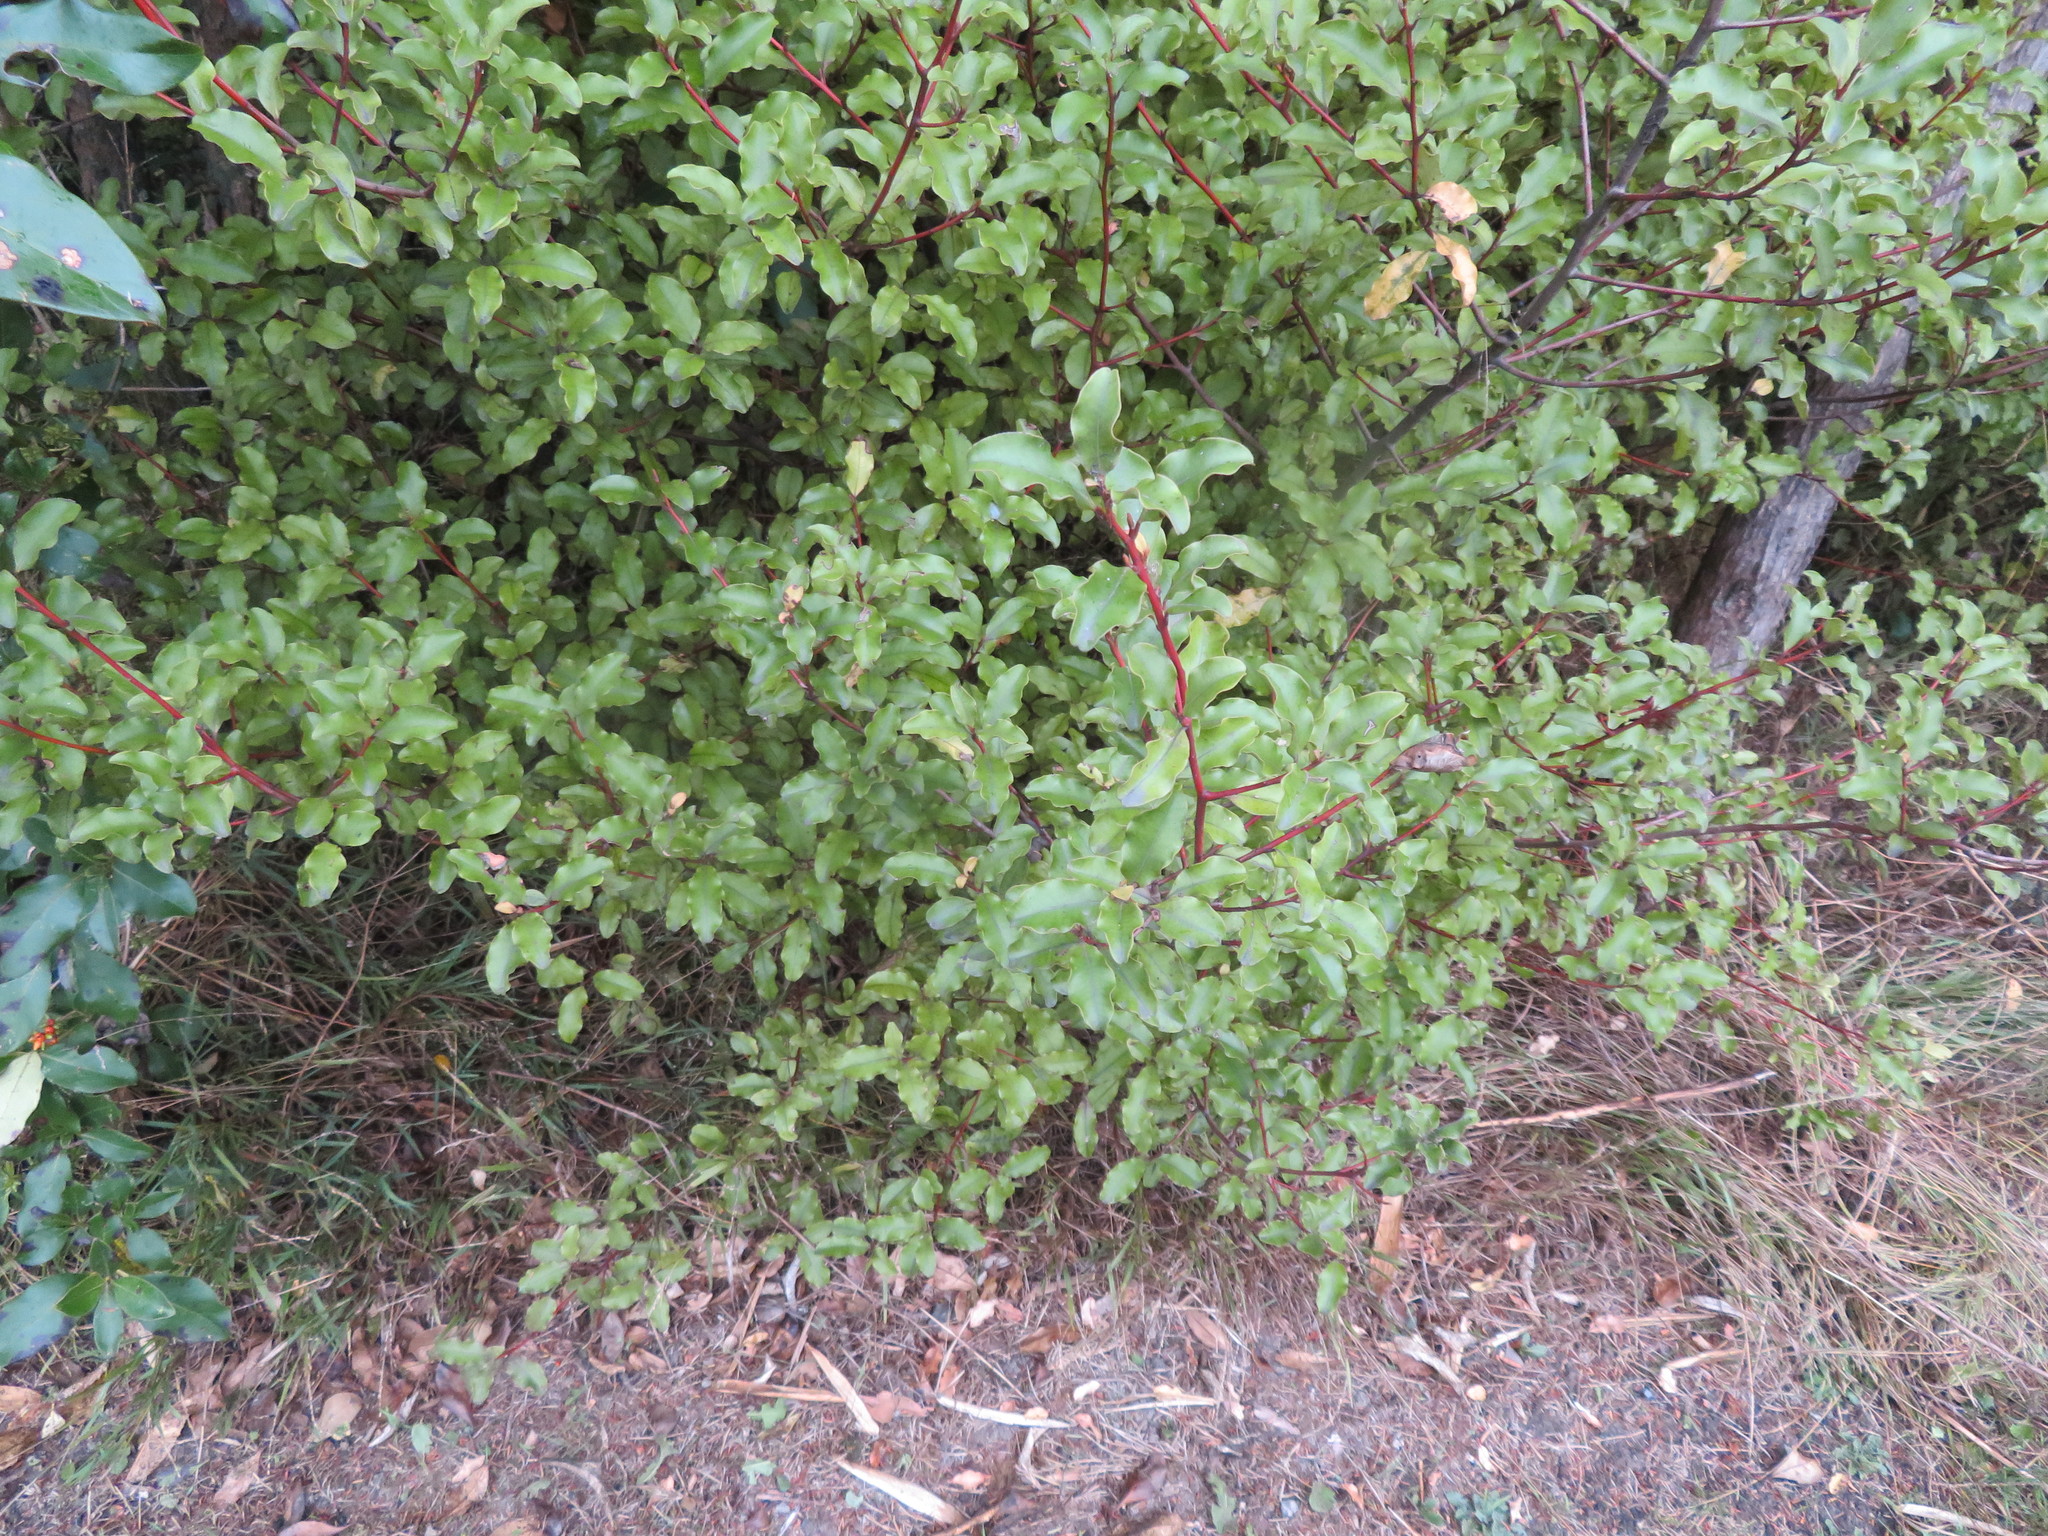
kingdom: Plantae
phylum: Tracheophyta
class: Magnoliopsida
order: Ericales
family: Primulaceae
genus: Myrsine
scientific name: Myrsine australis
